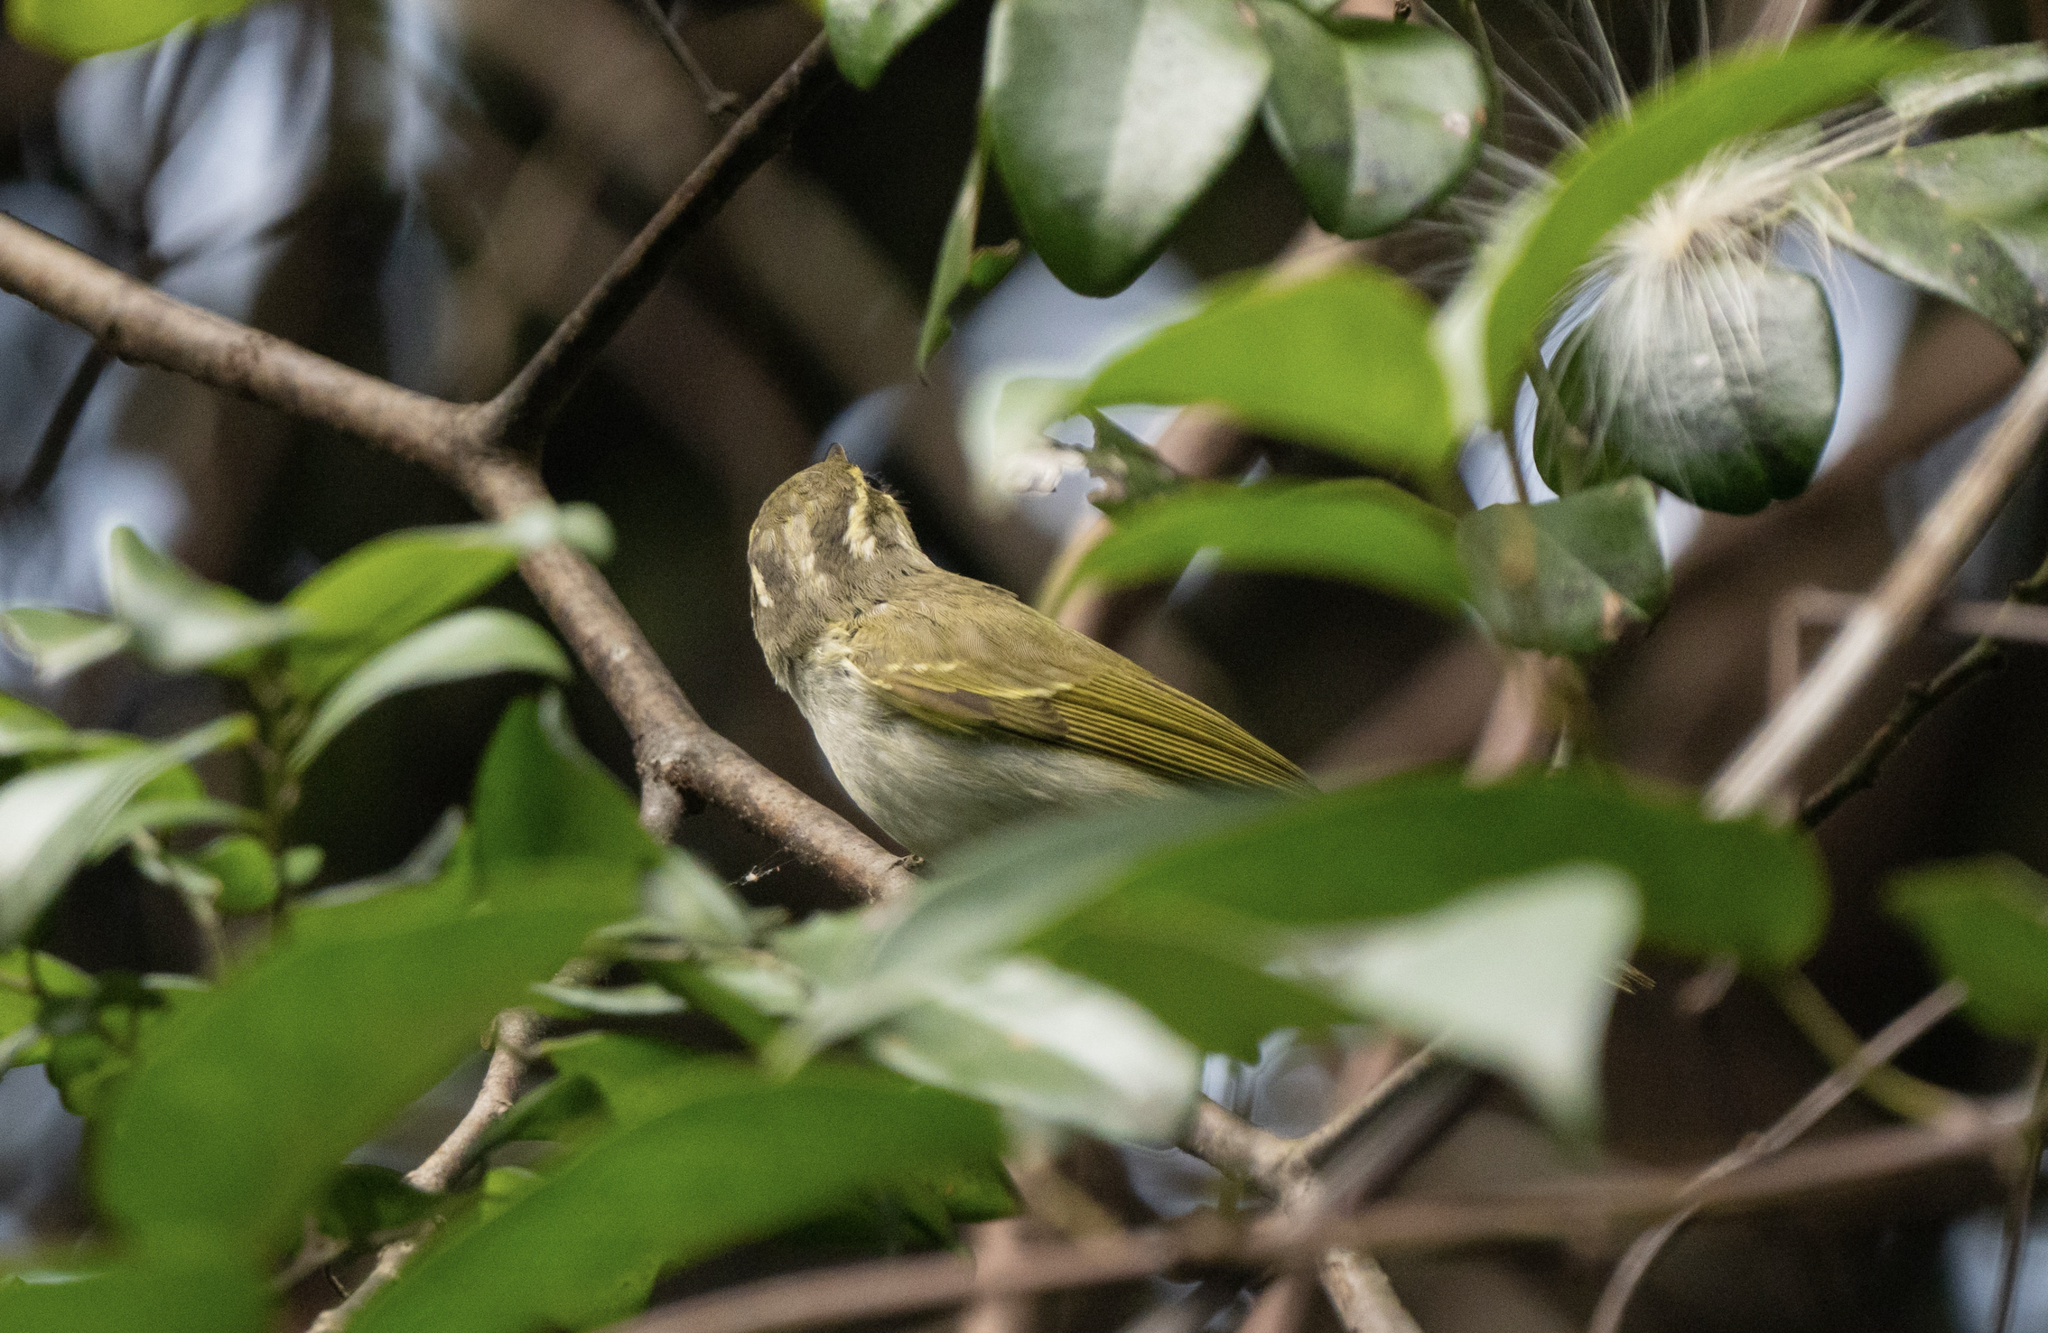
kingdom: Animalia
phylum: Chordata
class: Aves
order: Passeriformes
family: Phylloscopidae
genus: Phylloscopus
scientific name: Phylloscopus coronatus
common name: Eastern crowned warbler
